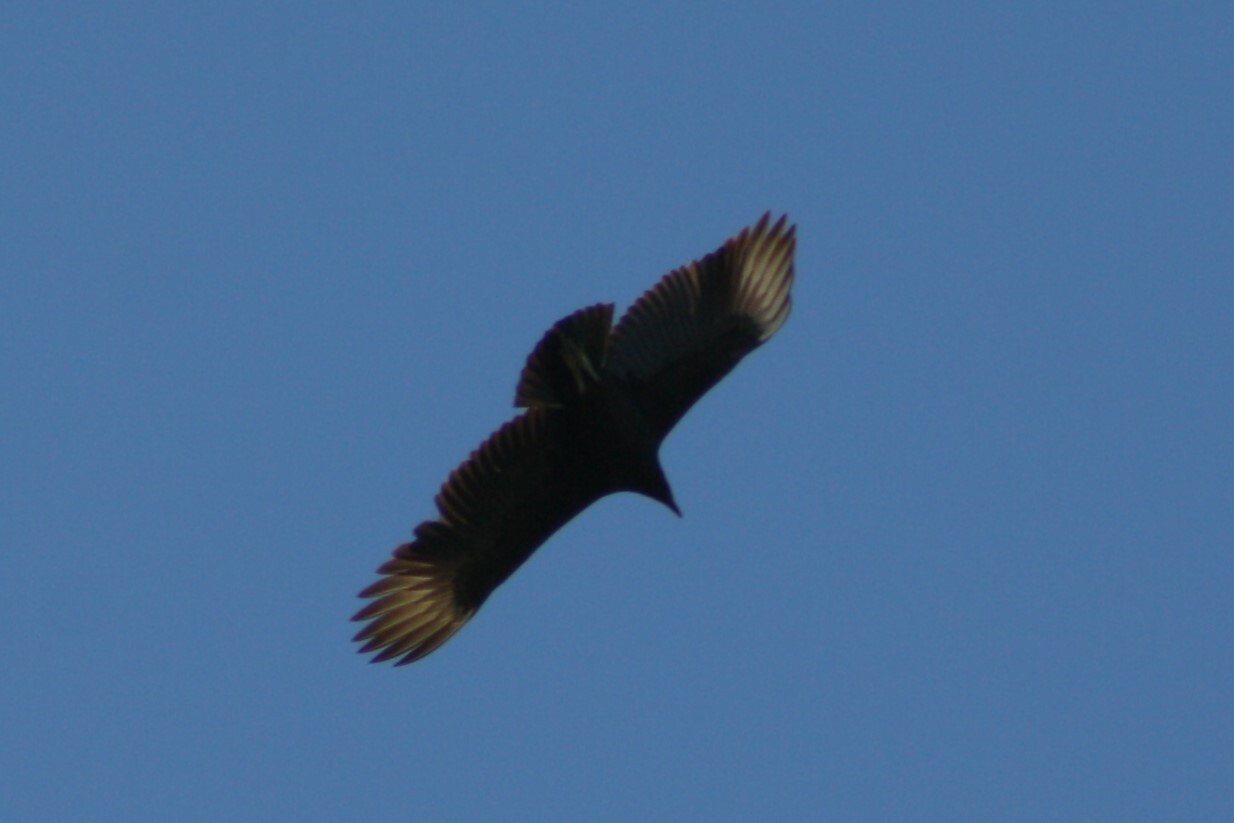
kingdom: Animalia
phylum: Chordata
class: Aves
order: Accipitriformes
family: Cathartidae
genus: Coragyps
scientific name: Coragyps atratus
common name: Black vulture
